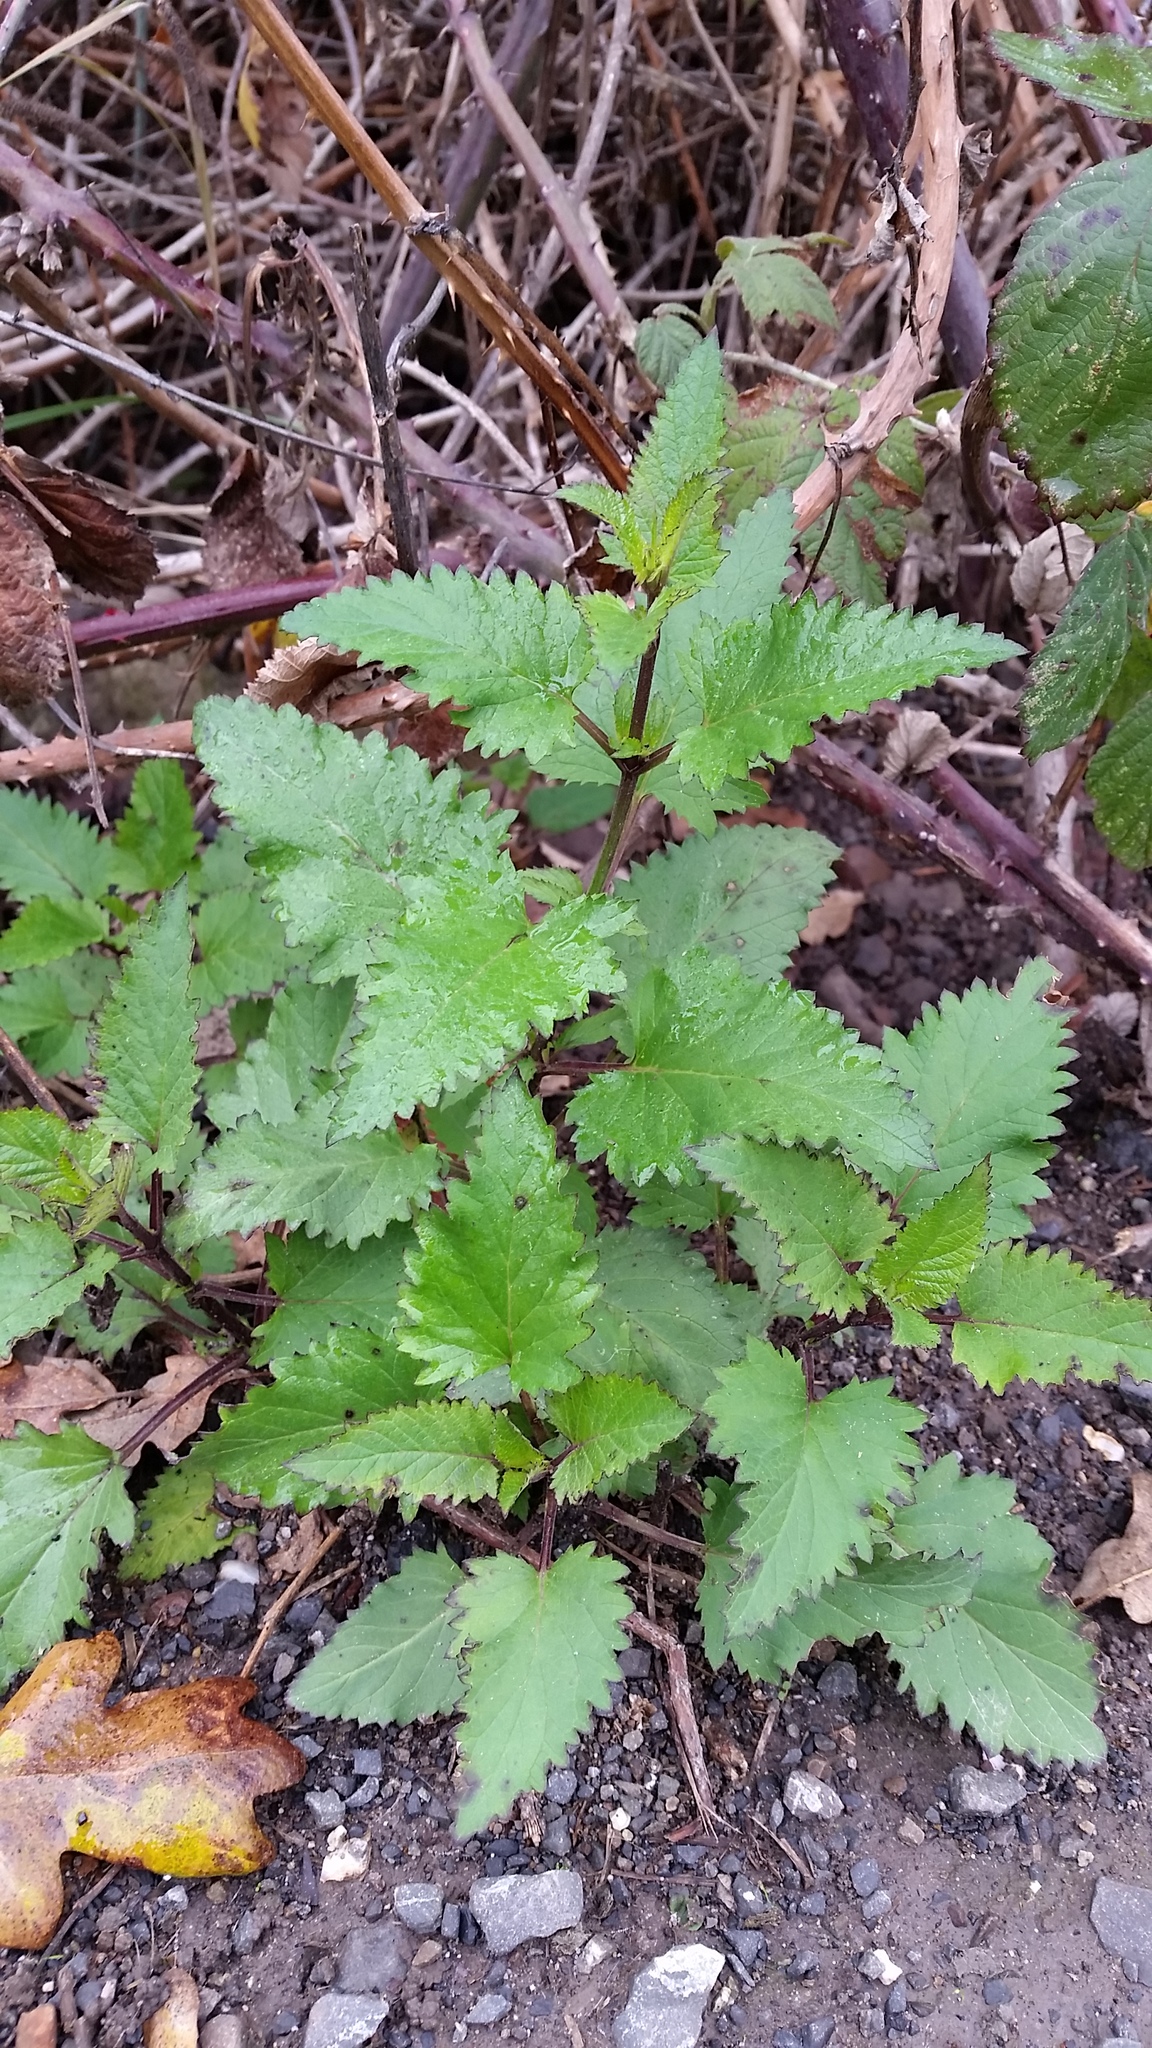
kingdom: Plantae
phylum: Tracheophyta
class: Magnoliopsida
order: Lamiales
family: Scrophulariaceae
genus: Scrophularia
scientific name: Scrophularia californica
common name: California figwort
